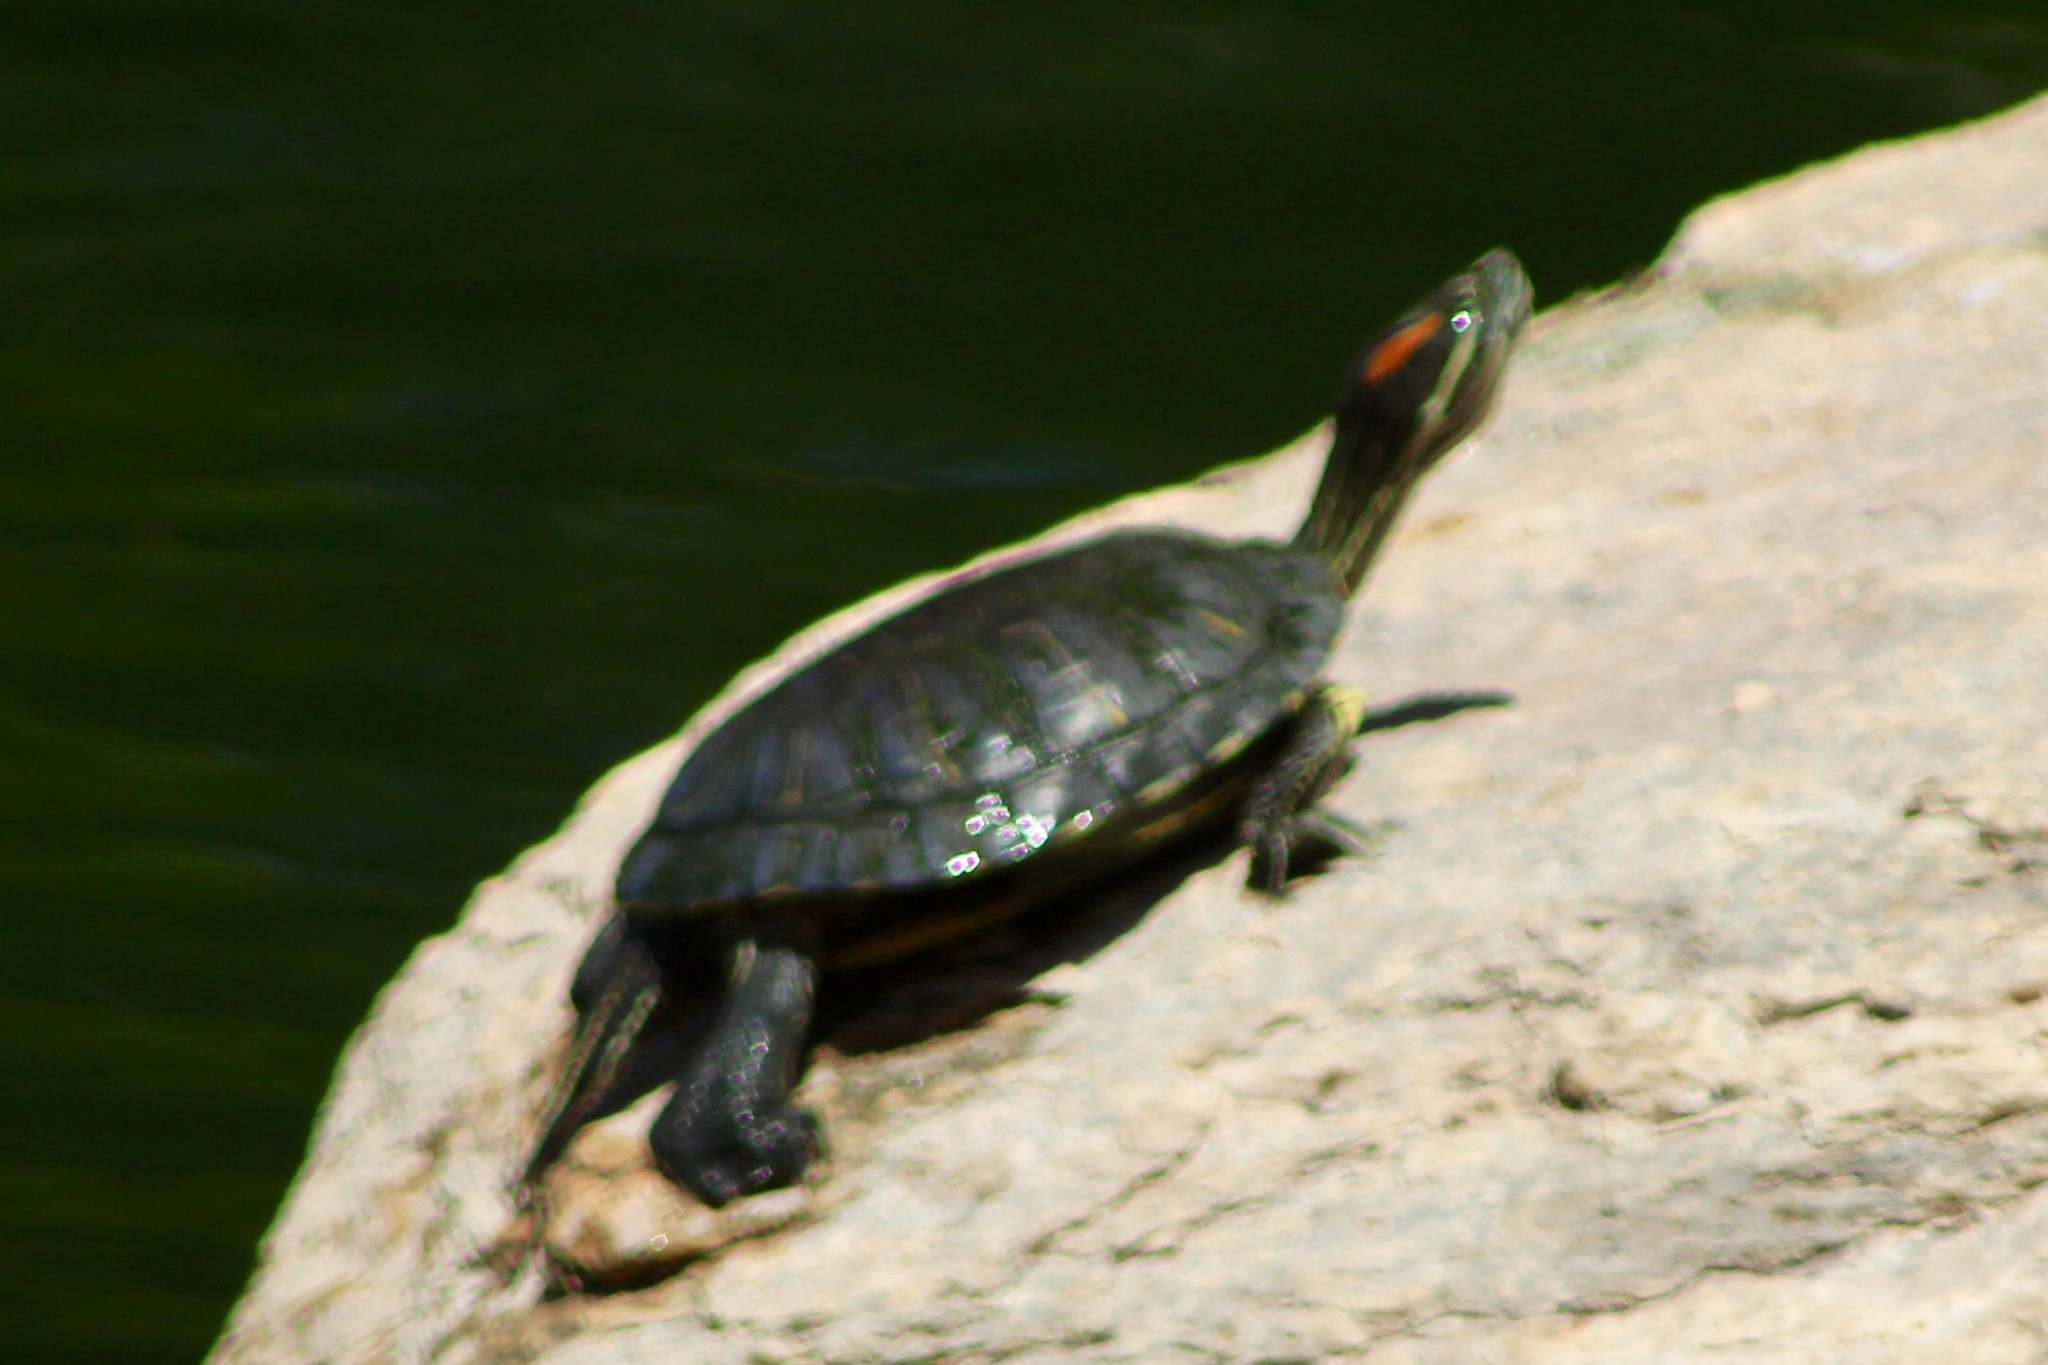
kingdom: Animalia
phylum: Chordata
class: Testudines
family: Emydidae
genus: Trachemys
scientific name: Trachemys scripta
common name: Slider
